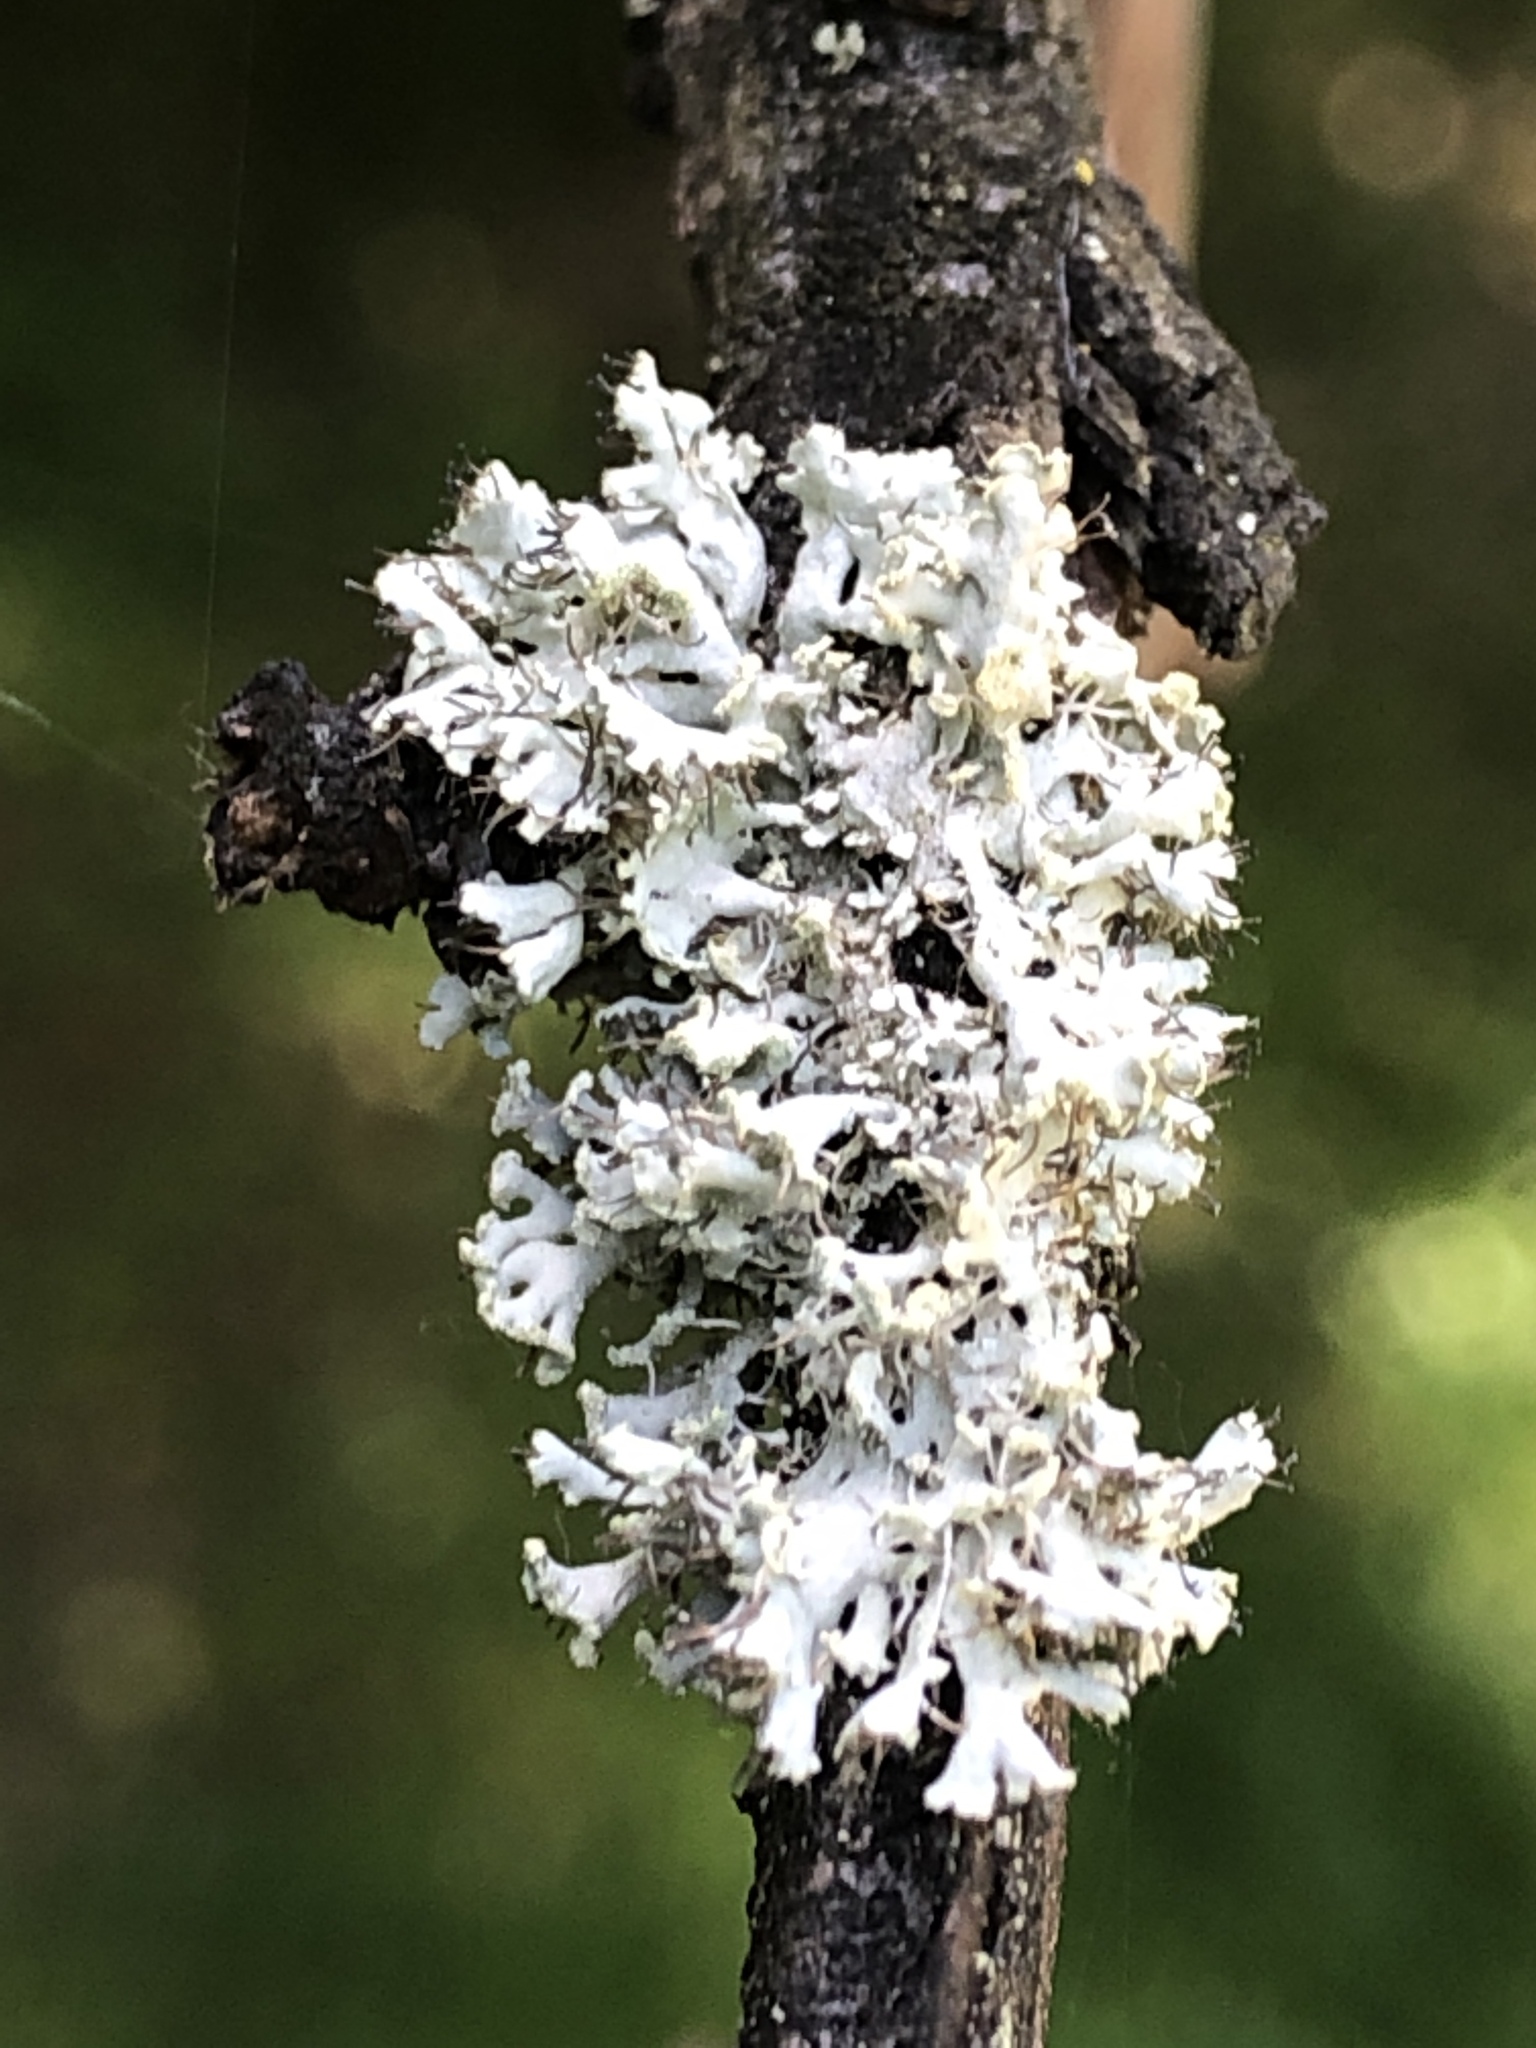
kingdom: Fungi
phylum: Ascomycota
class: Lecanoromycetes
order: Caliciales
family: Physciaceae
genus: Physcia
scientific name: Physcia tenella
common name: Fringed rosette lichen
